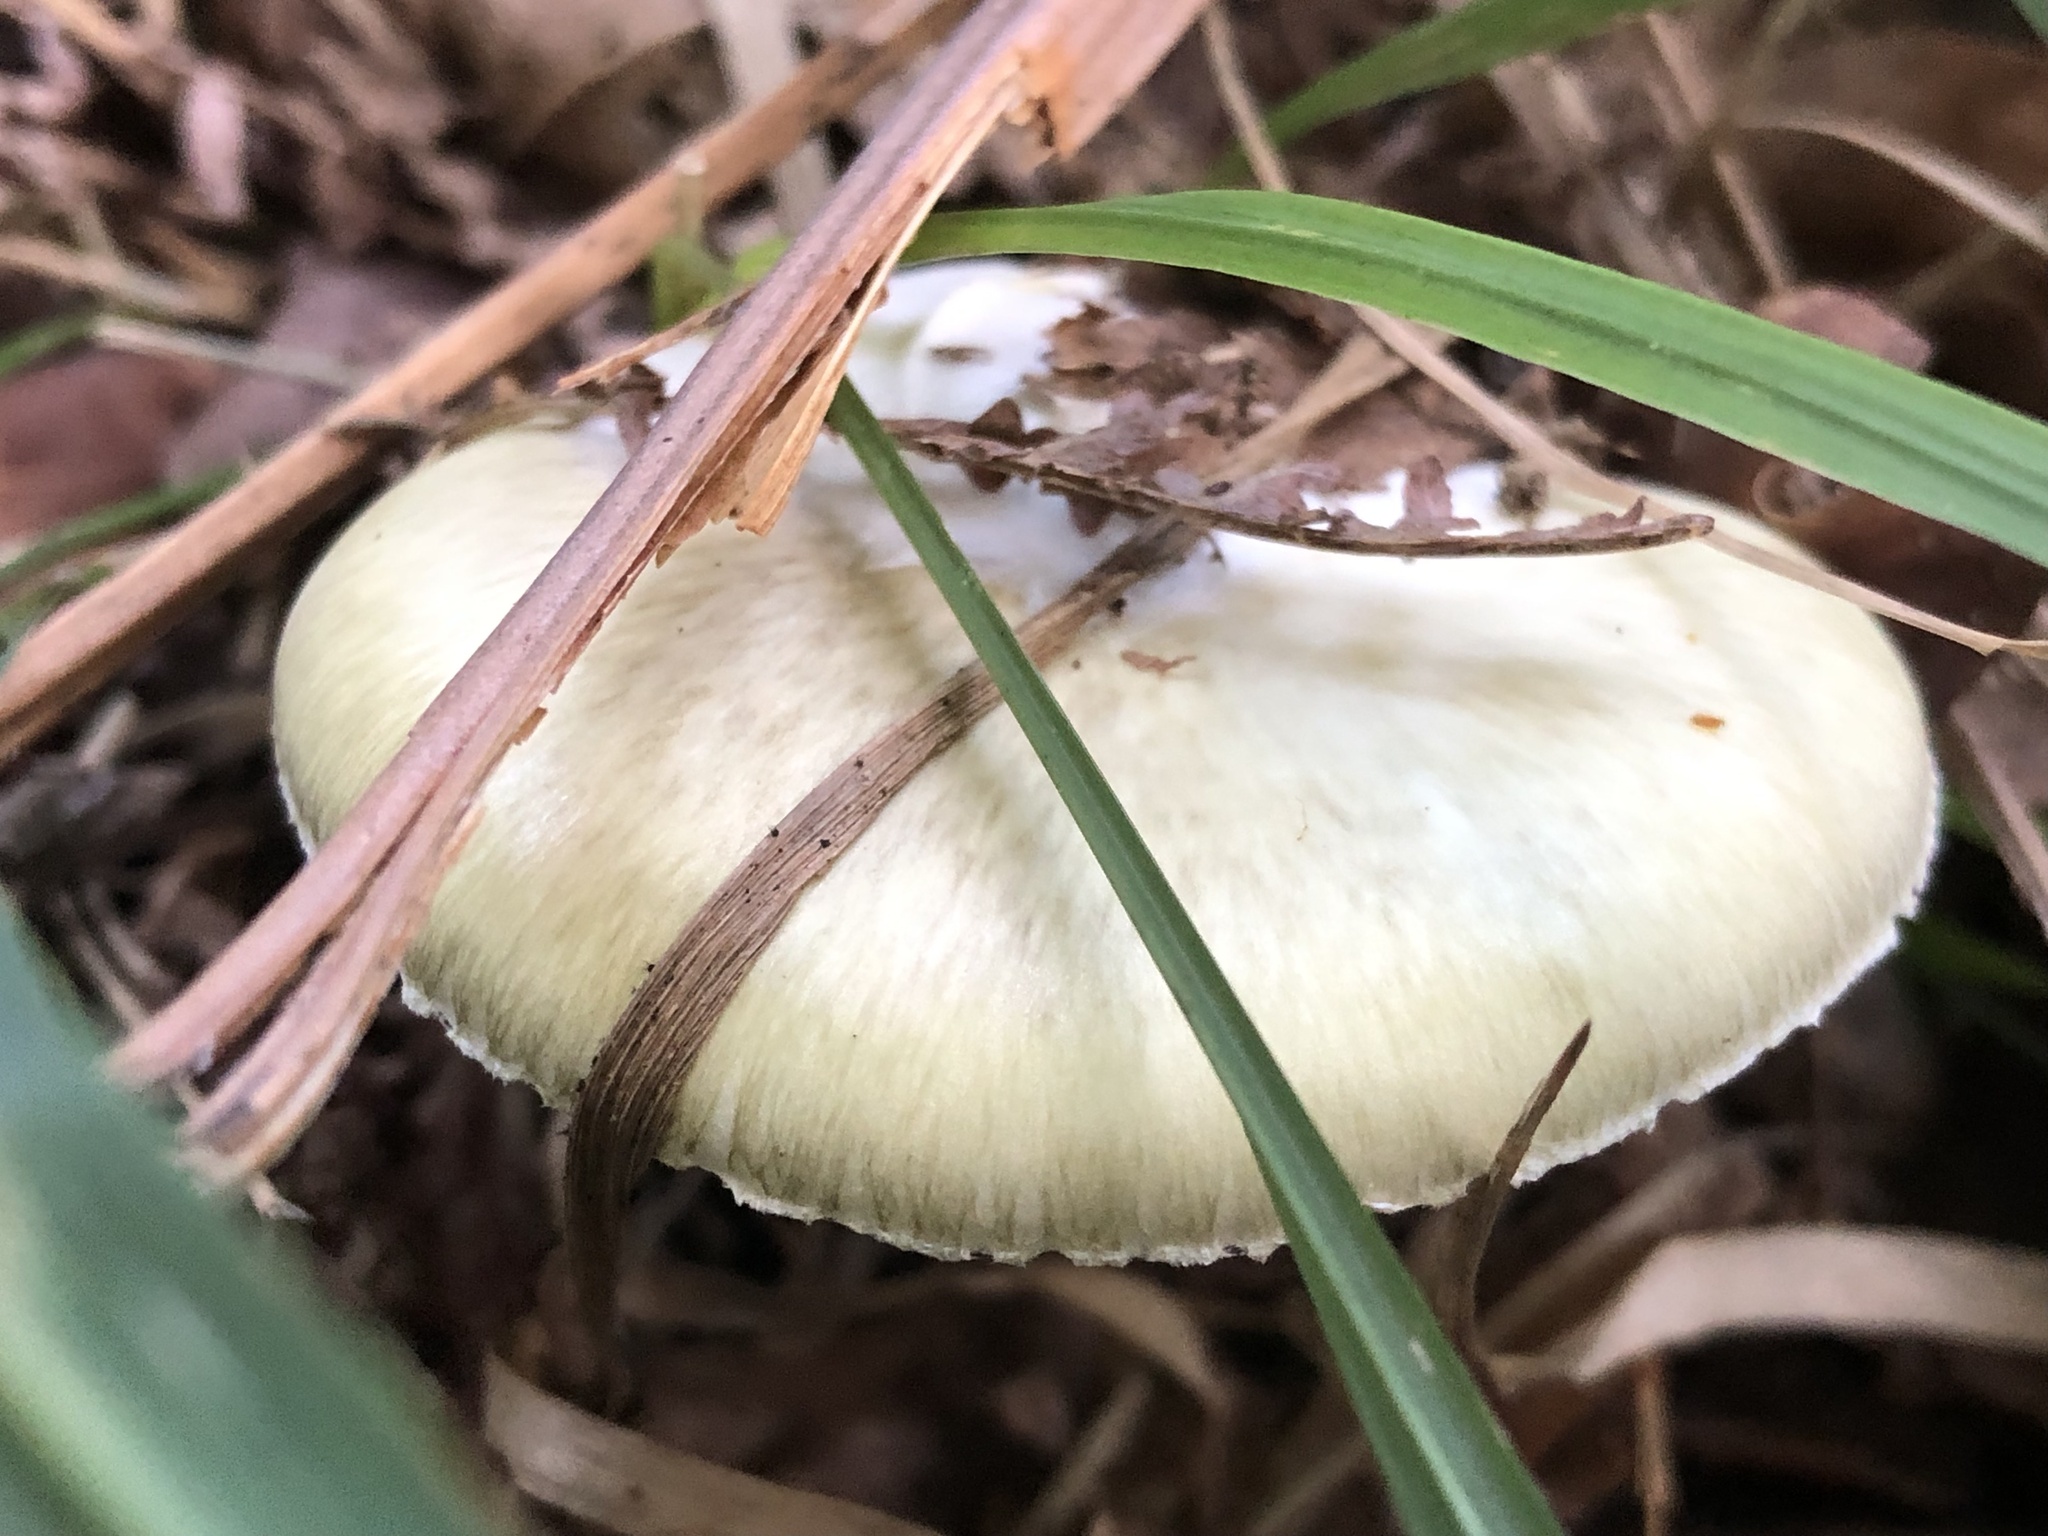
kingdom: Fungi
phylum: Basidiomycota
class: Agaricomycetes
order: Agaricales
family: Amanitaceae
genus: Amanita
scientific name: Amanita phalloides
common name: Death cap
